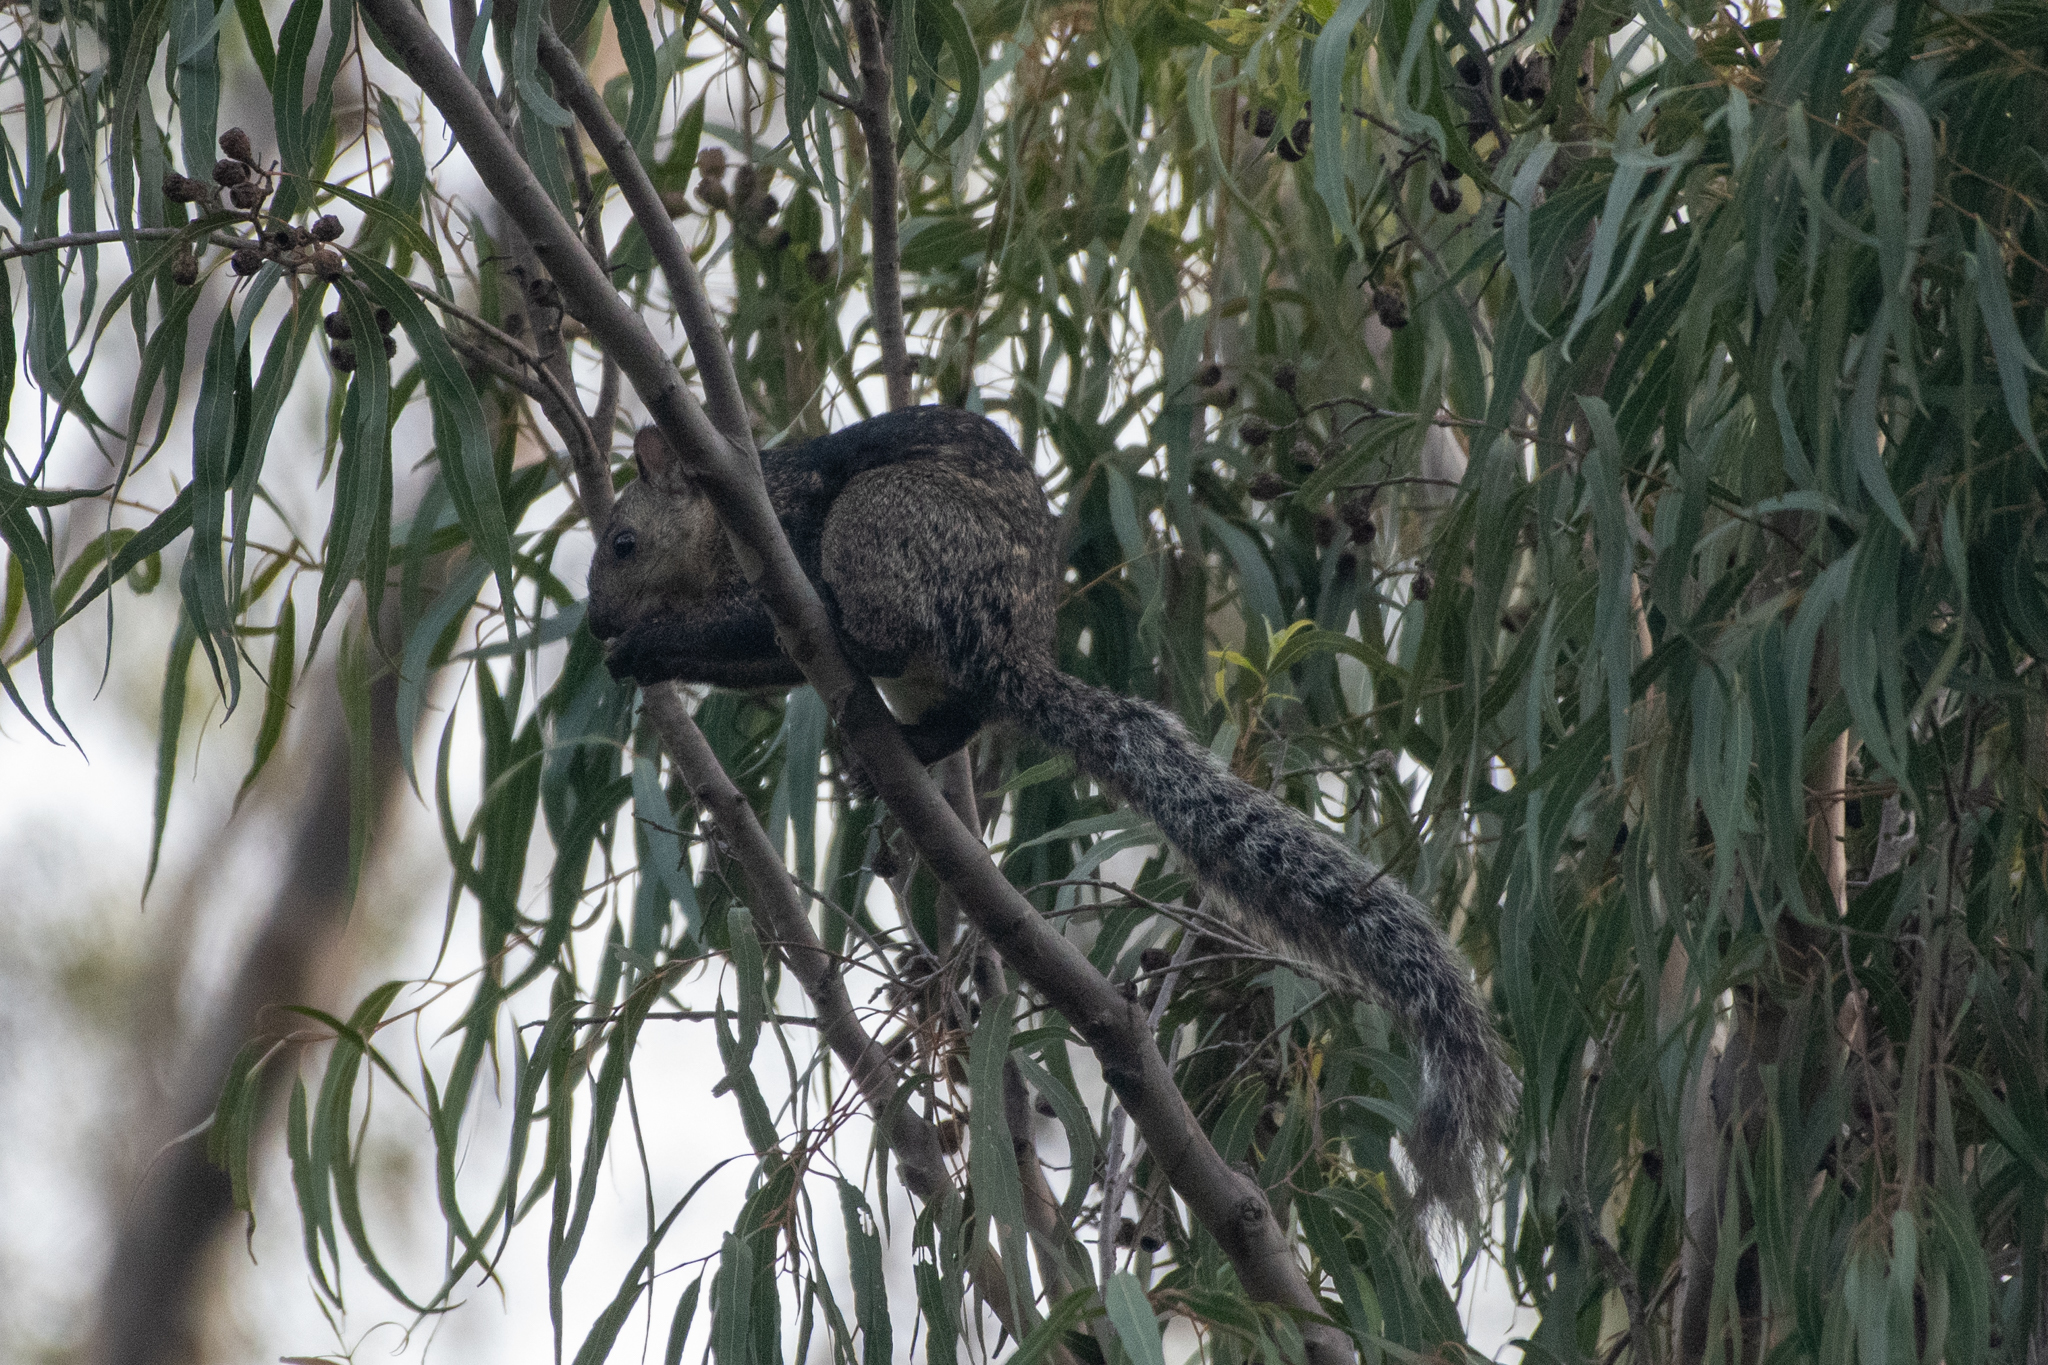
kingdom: Animalia
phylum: Chordata
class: Mammalia
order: Rodentia
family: Sciuridae
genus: Sciurus
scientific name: Sciurus variegatoides
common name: Variegated squirrel
